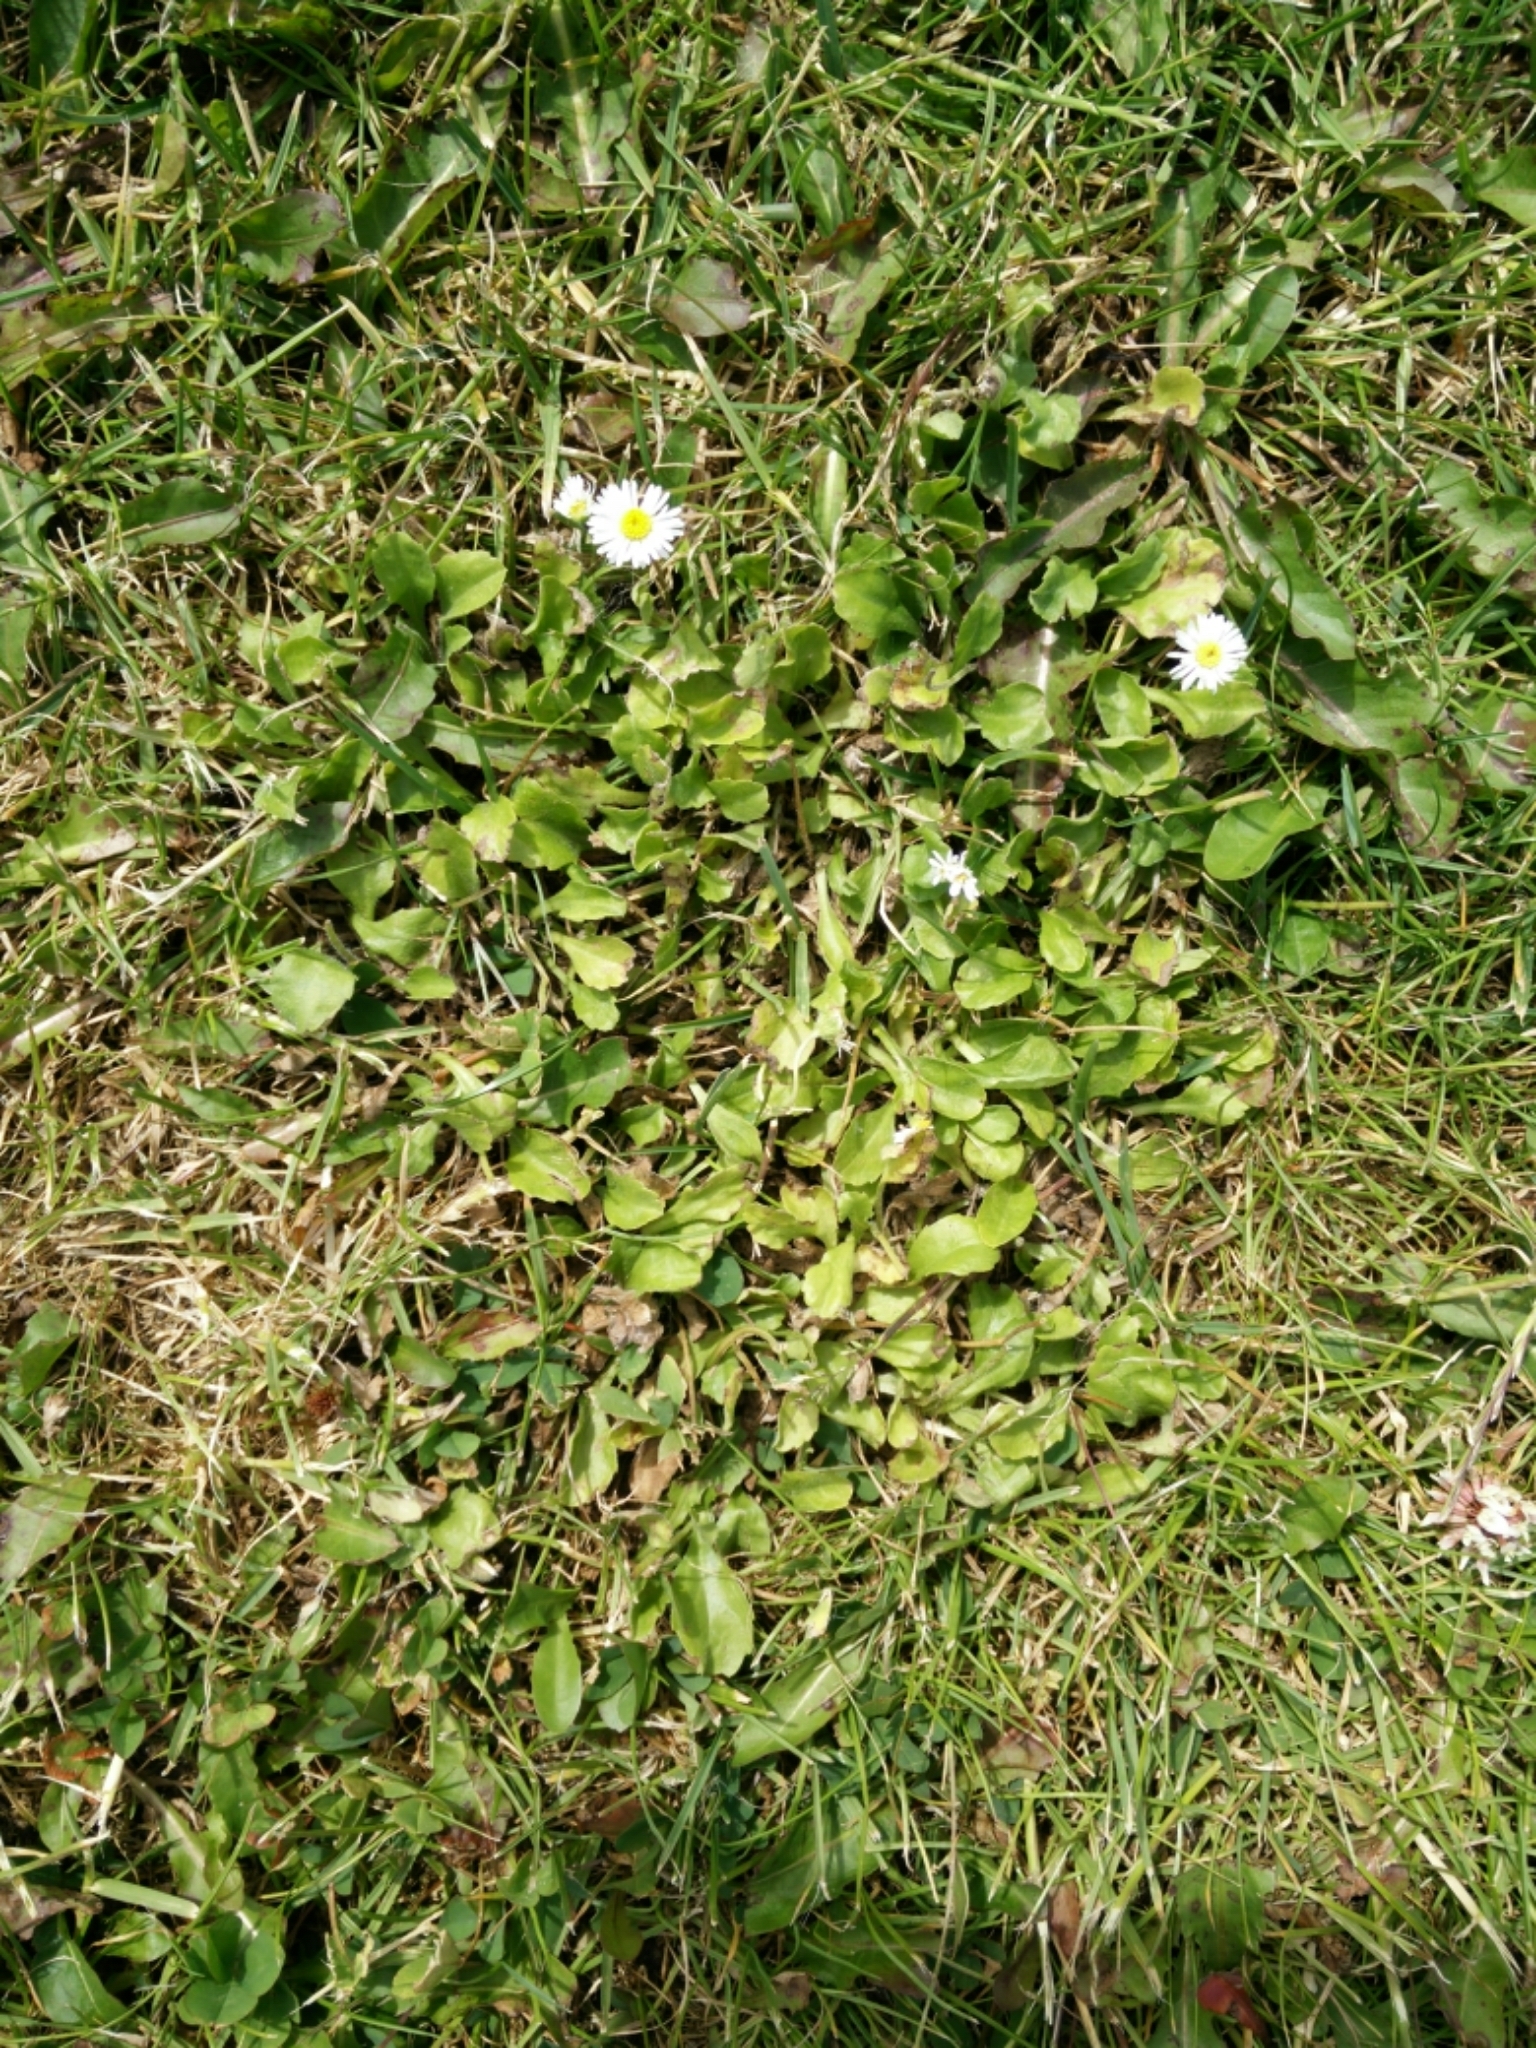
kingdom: Plantae
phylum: Tracheophyta
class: Magnoliopsida
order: Asterales
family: Asteraceae
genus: Bellis
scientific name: Bellis perennis
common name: Lawndaisy
